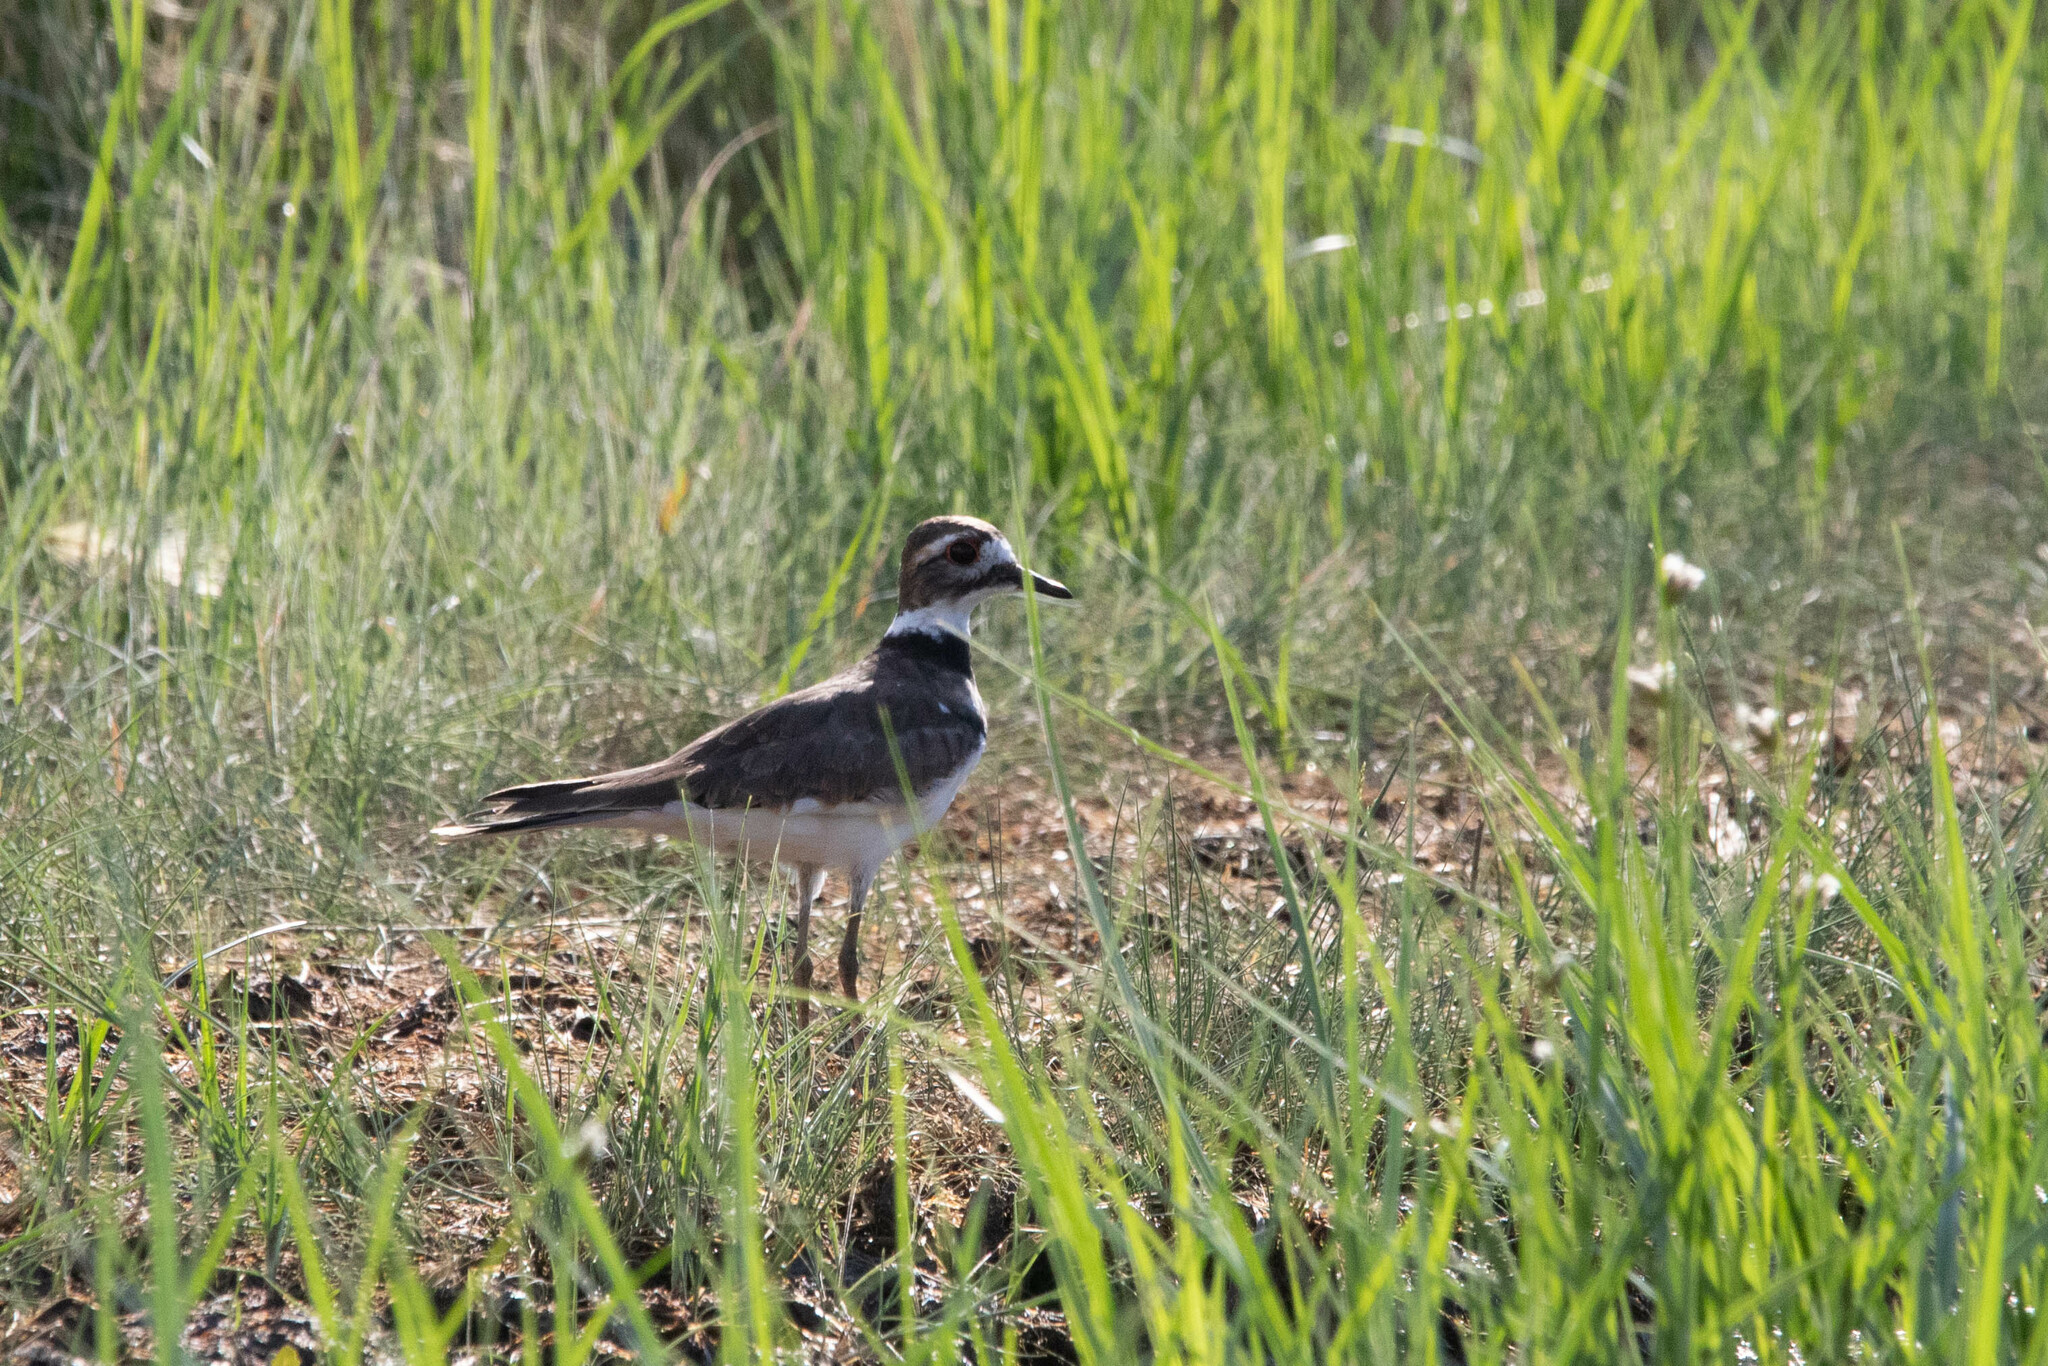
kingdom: Animalia
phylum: Chordata
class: Aves
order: Charadriiformes
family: Charadriidae
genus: Charadrius
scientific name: Charadrius vociferus
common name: Killdeer
